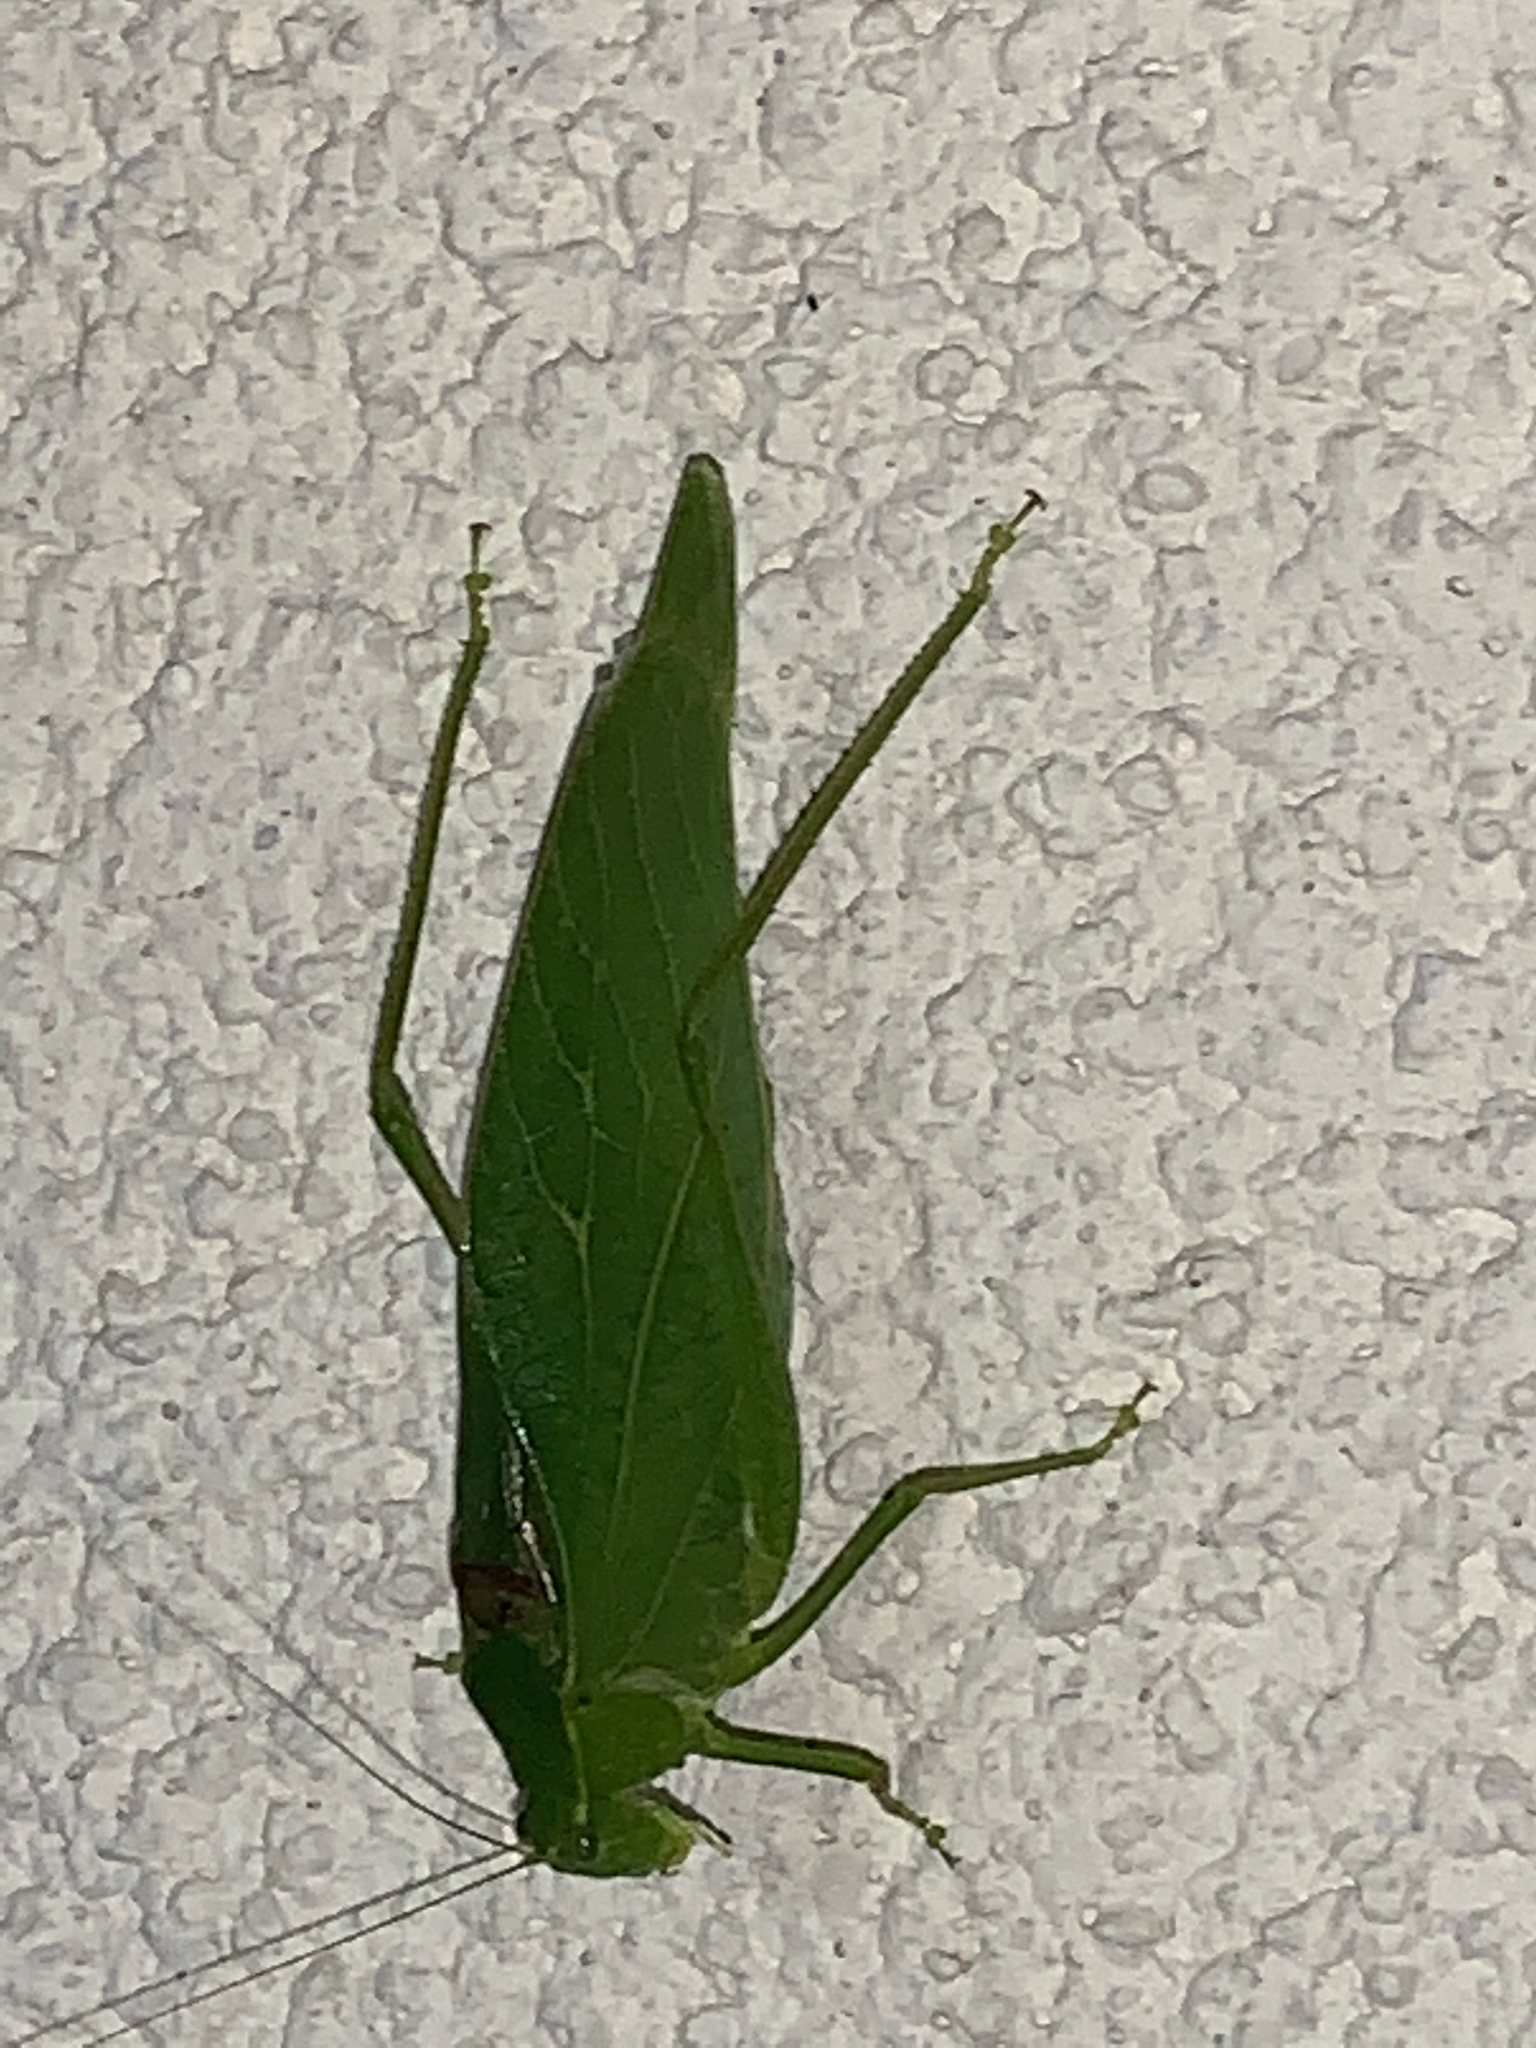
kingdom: Animalia
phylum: Arthropoda
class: Insecta
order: Orthoptera
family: Tettigoniidae
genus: Microcentrum
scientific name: Microcentrum retinerve
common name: Angular-winged katydid
